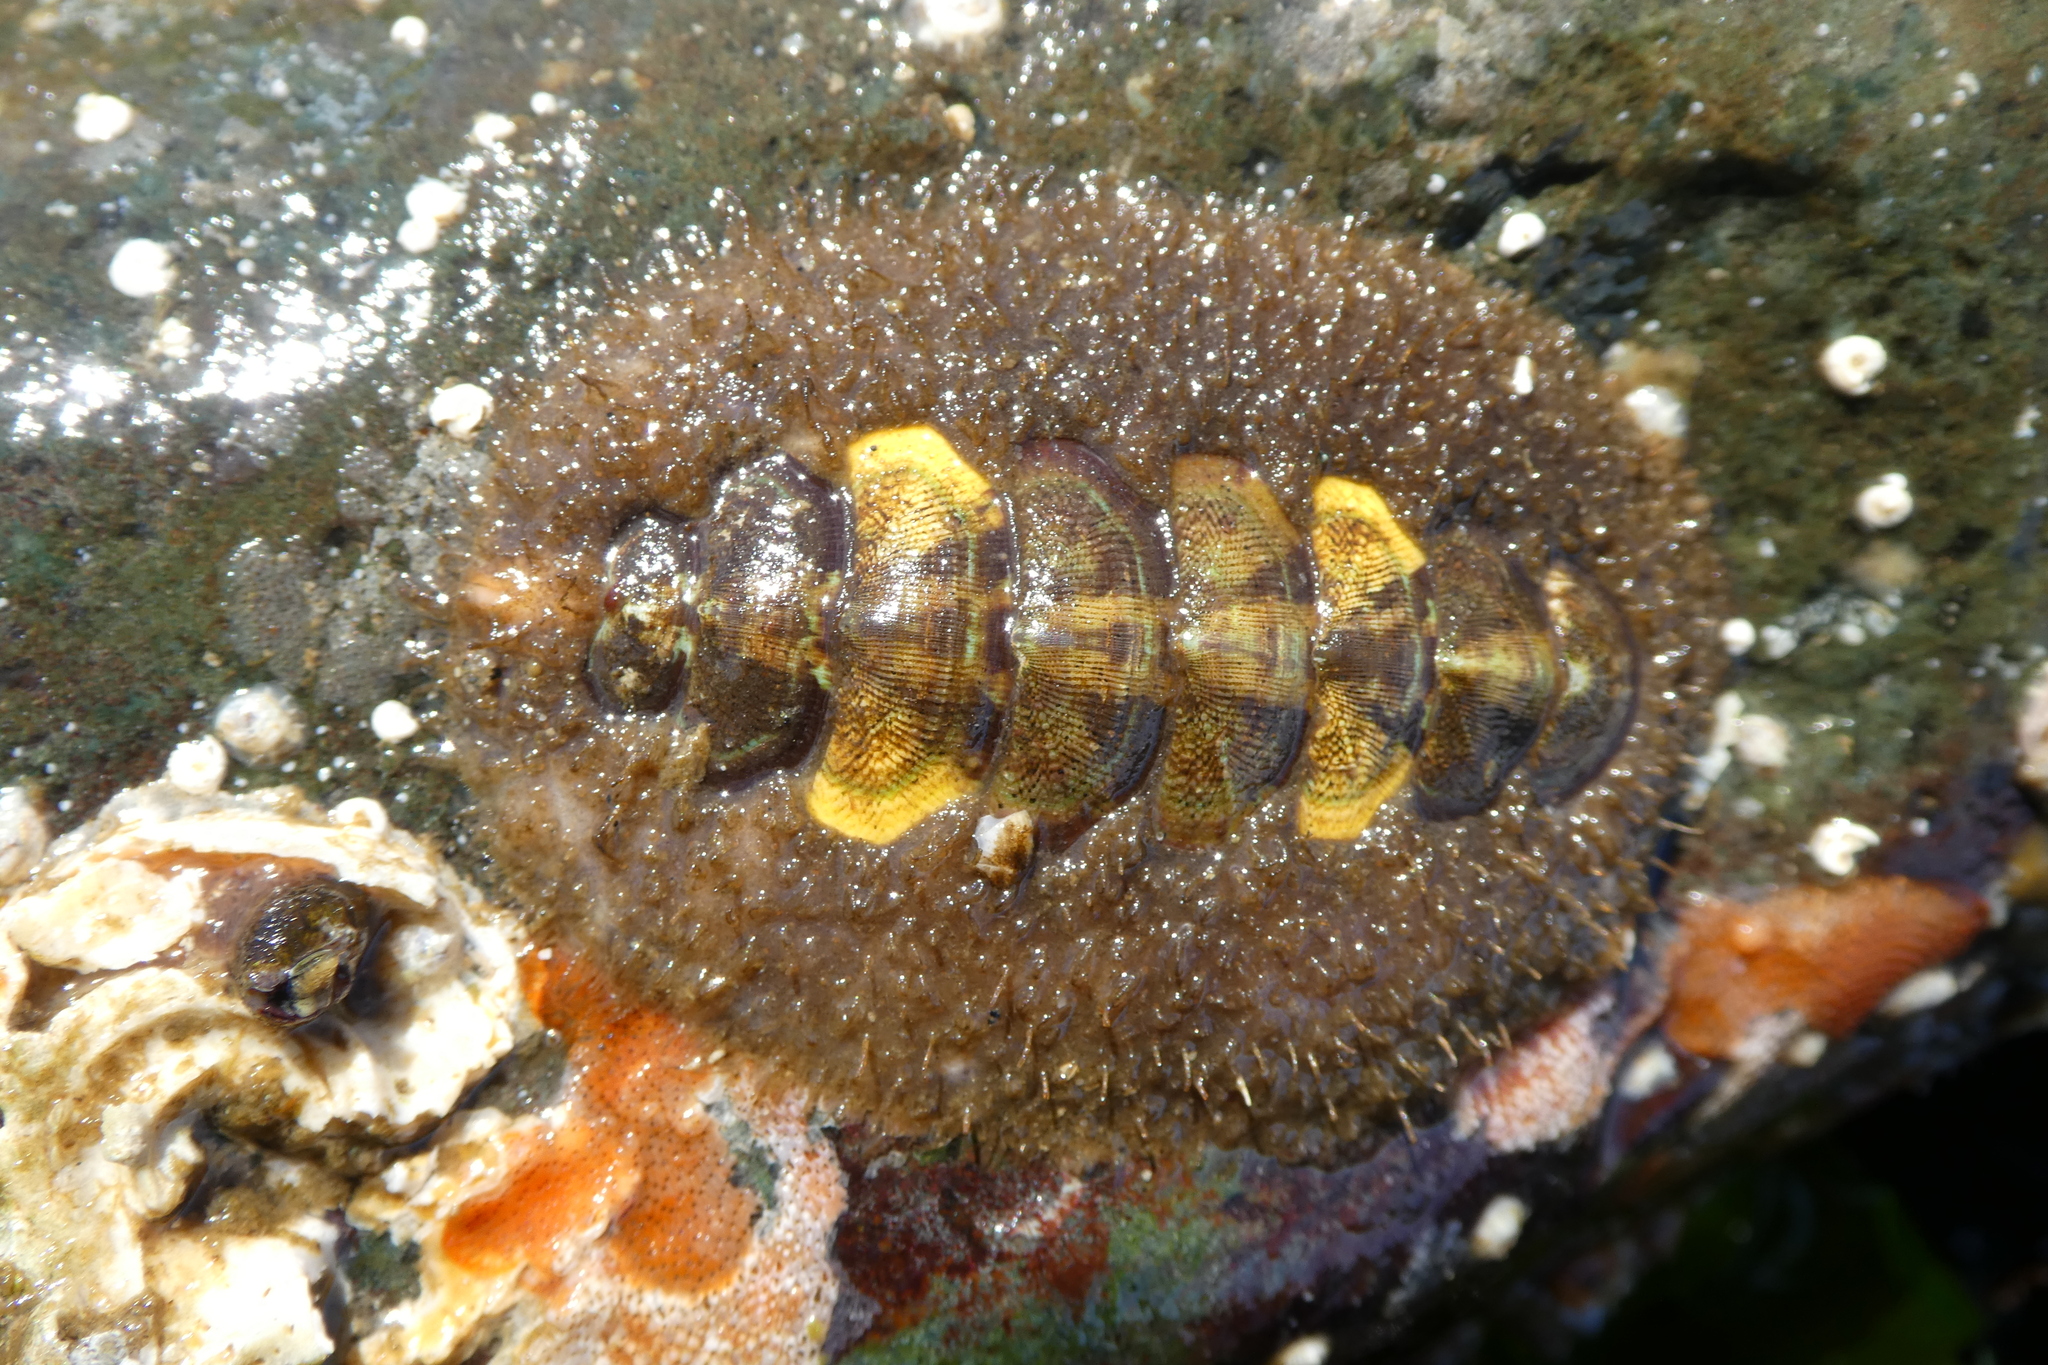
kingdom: Animalia
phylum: Mollusca
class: Polyplacophora
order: Chitonida
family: Mopaliidae
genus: Mopalia
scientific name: Mopalia ciliata
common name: Hairy chiton
